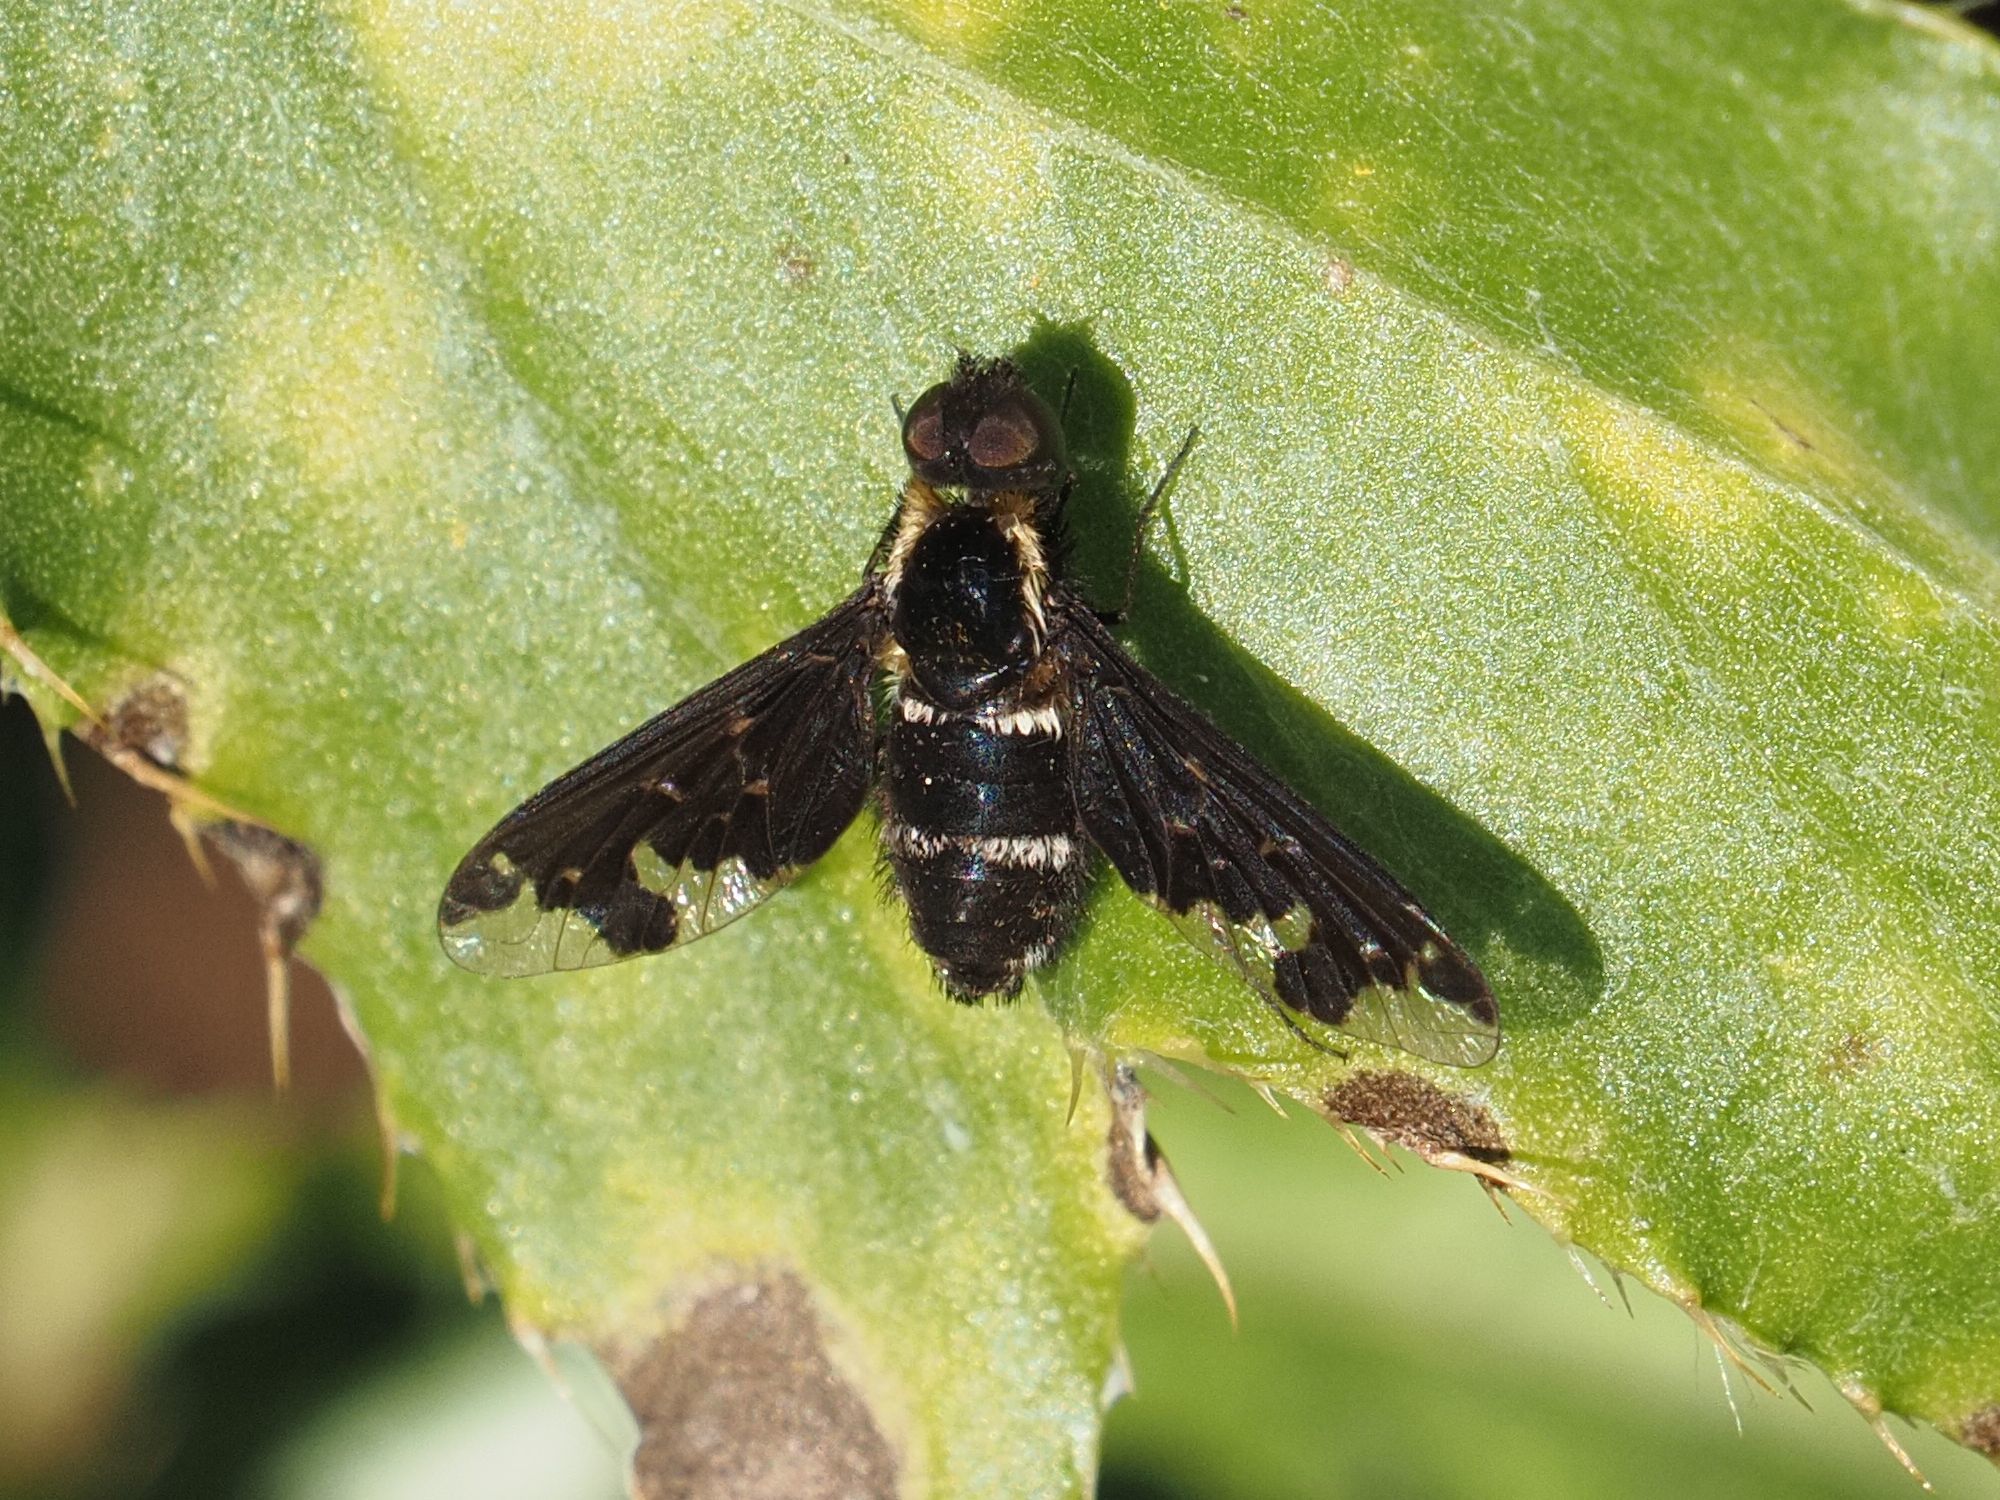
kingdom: Animalia
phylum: Arthropoda
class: Insecta
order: Diptera
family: Bombyliidae
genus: Hemipenthes
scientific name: Hemipenthes maura
